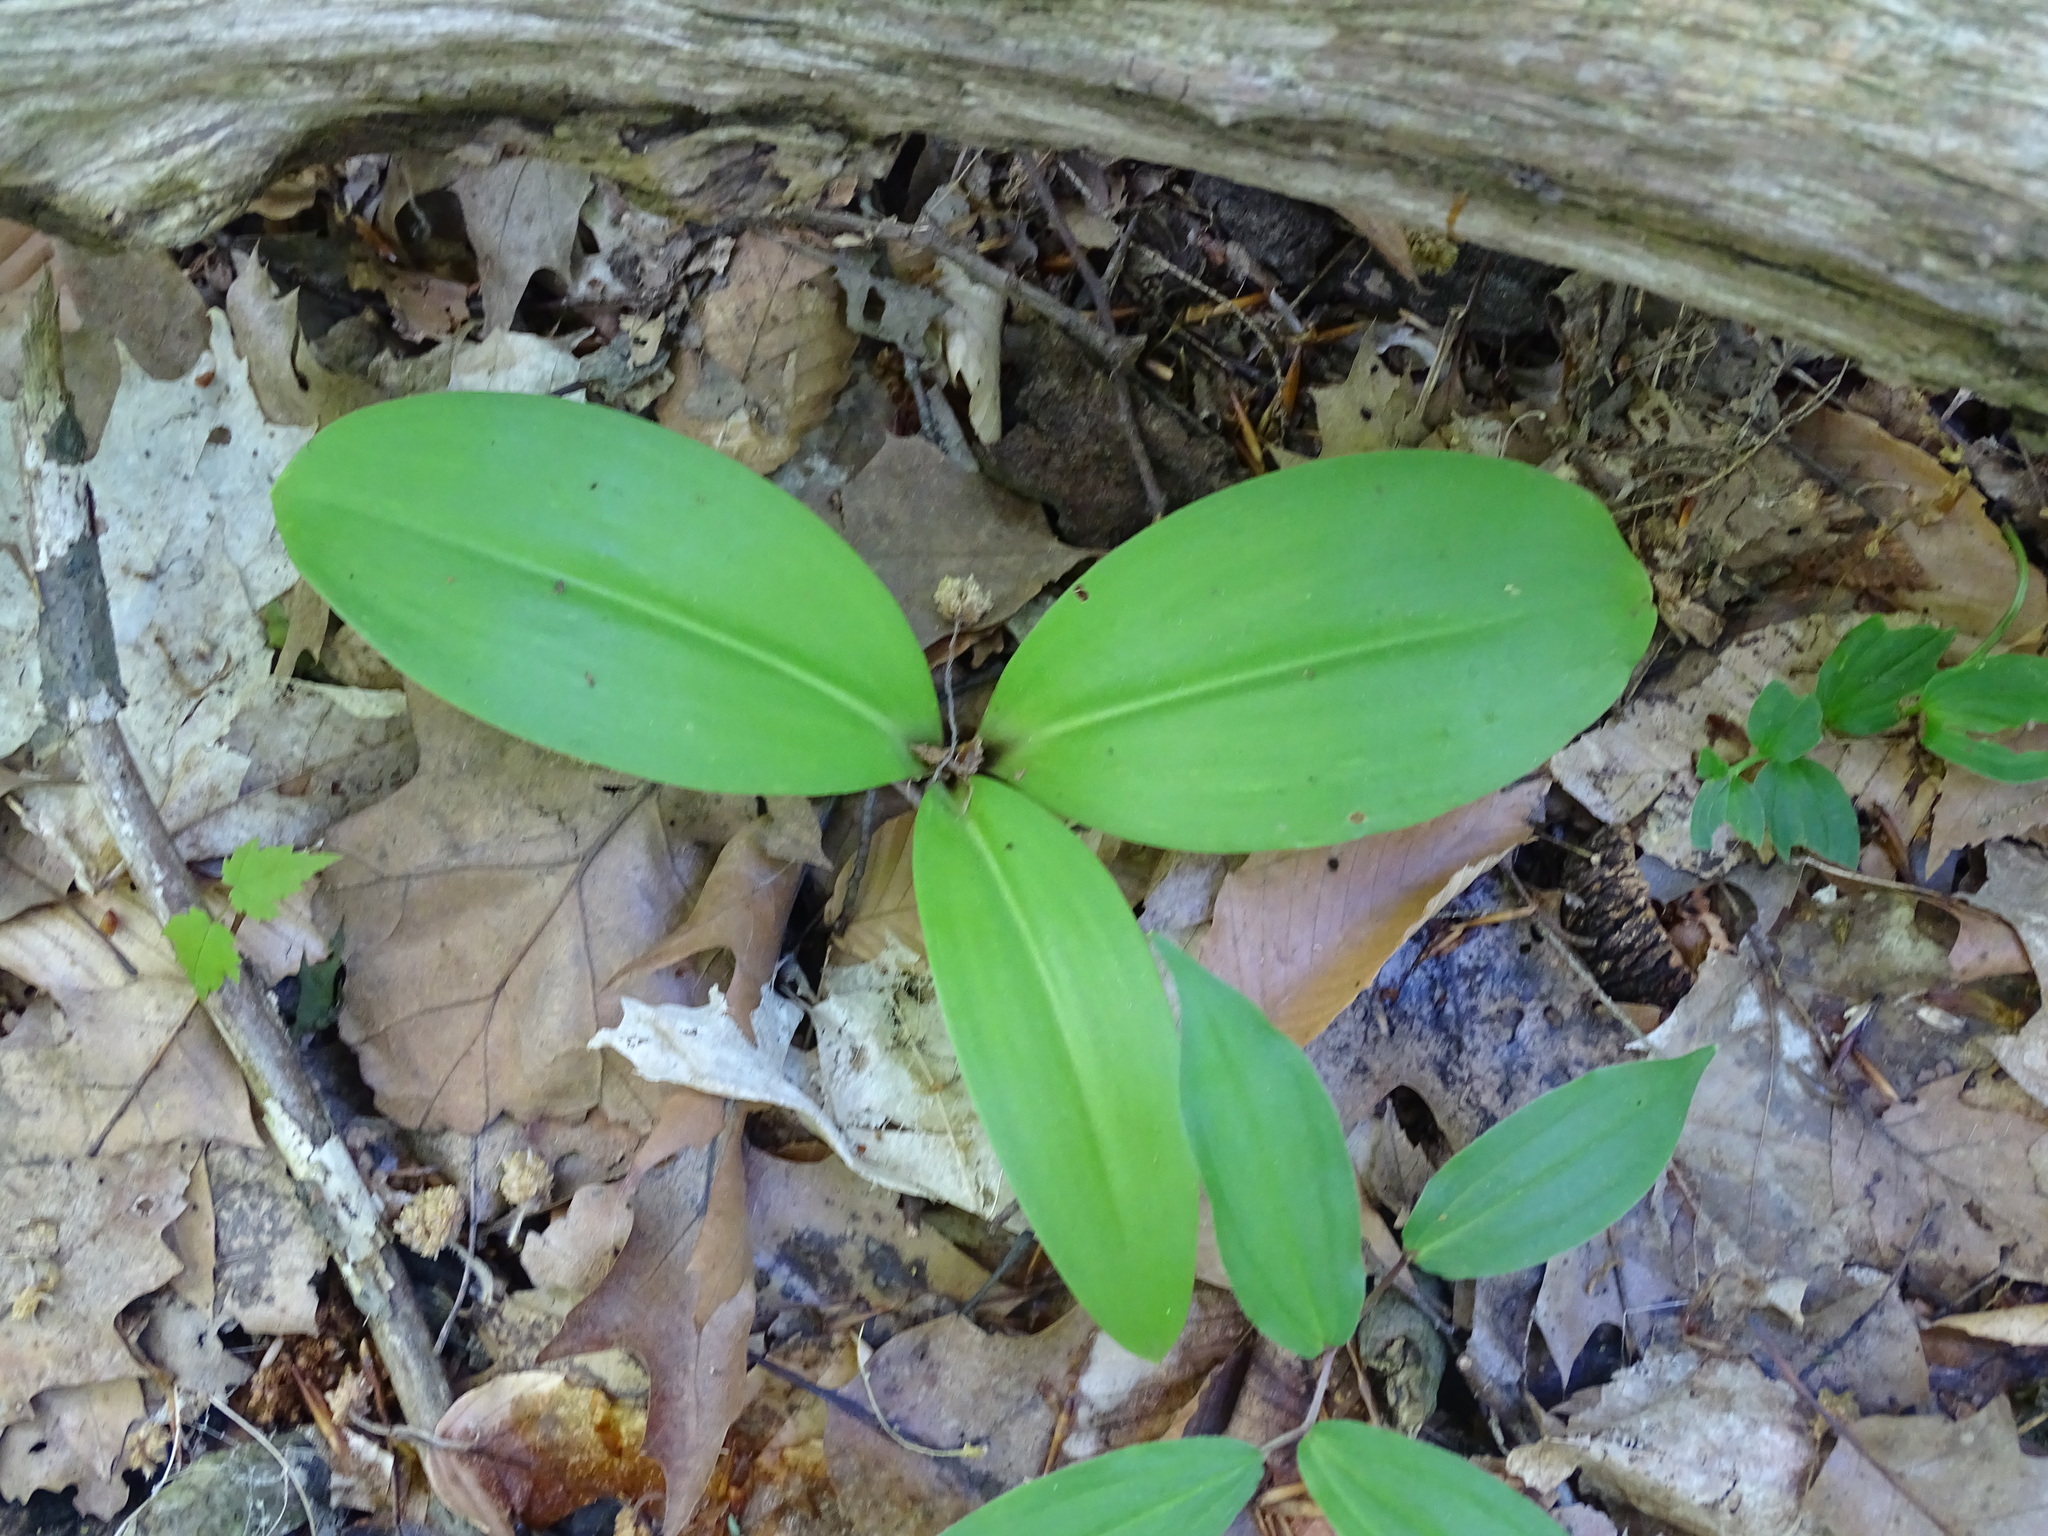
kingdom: Plantae
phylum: Tracheophyta
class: Liliopsida
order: Liliales
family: Liliaceae
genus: Clintonia
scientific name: Clintonia borealis
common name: Yellow clintonia
